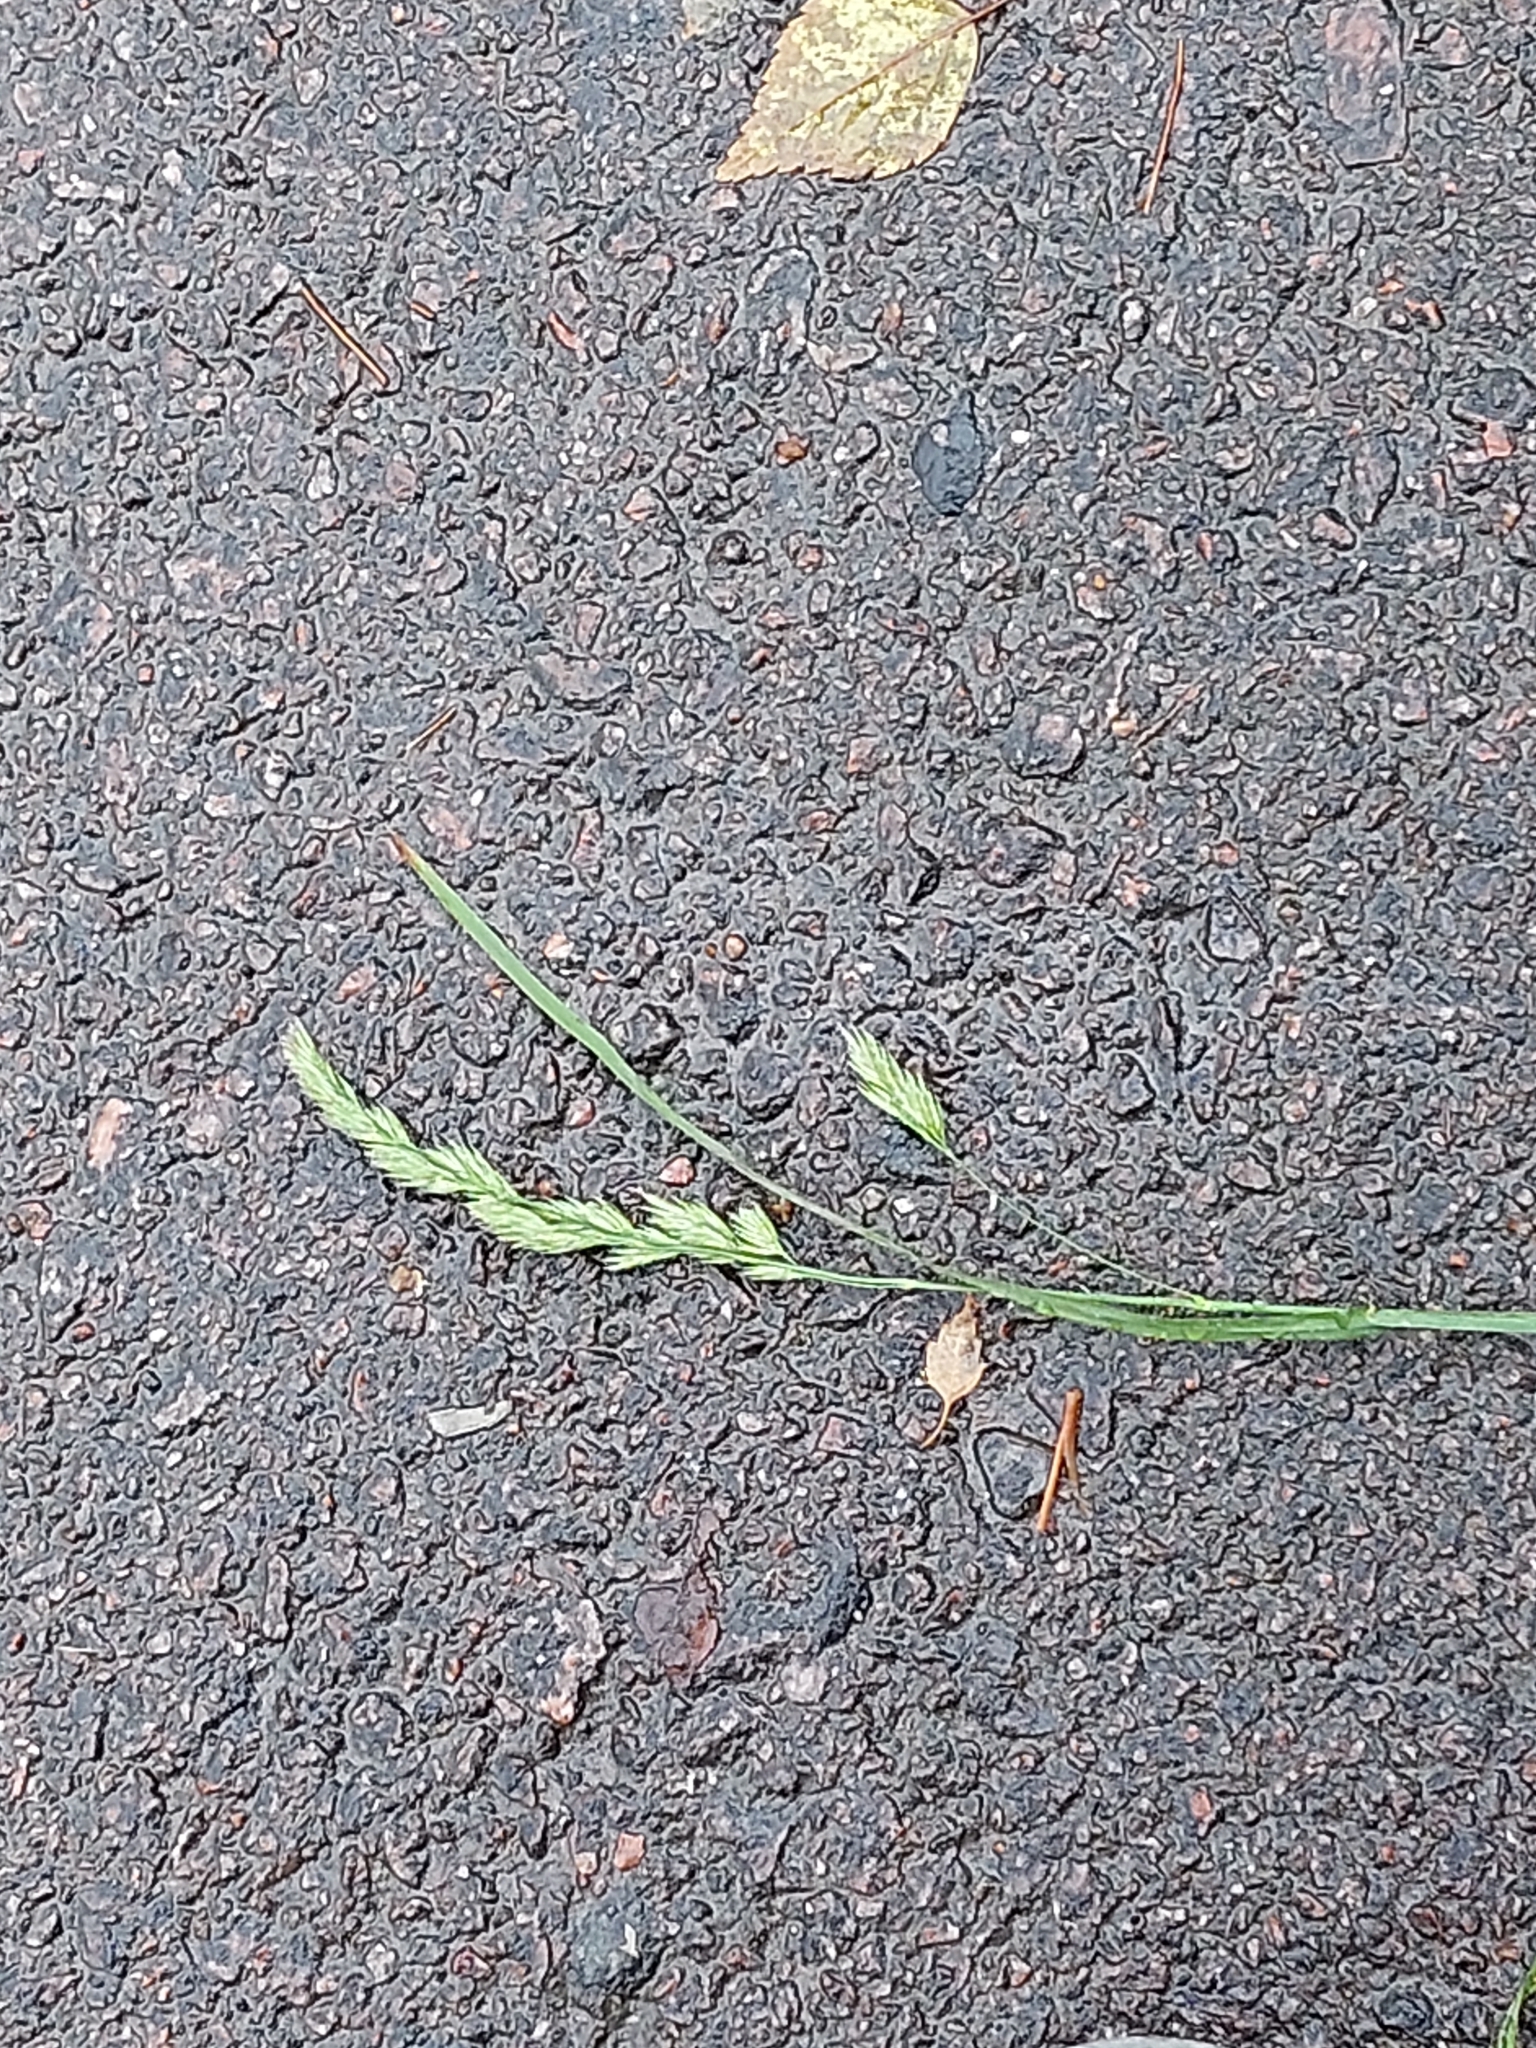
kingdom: Plantae
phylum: Tracheophyta
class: Liliopsida
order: Poales
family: Poaceae
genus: Dactylis
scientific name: Dactylis glomerata
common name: Orchardgrass
